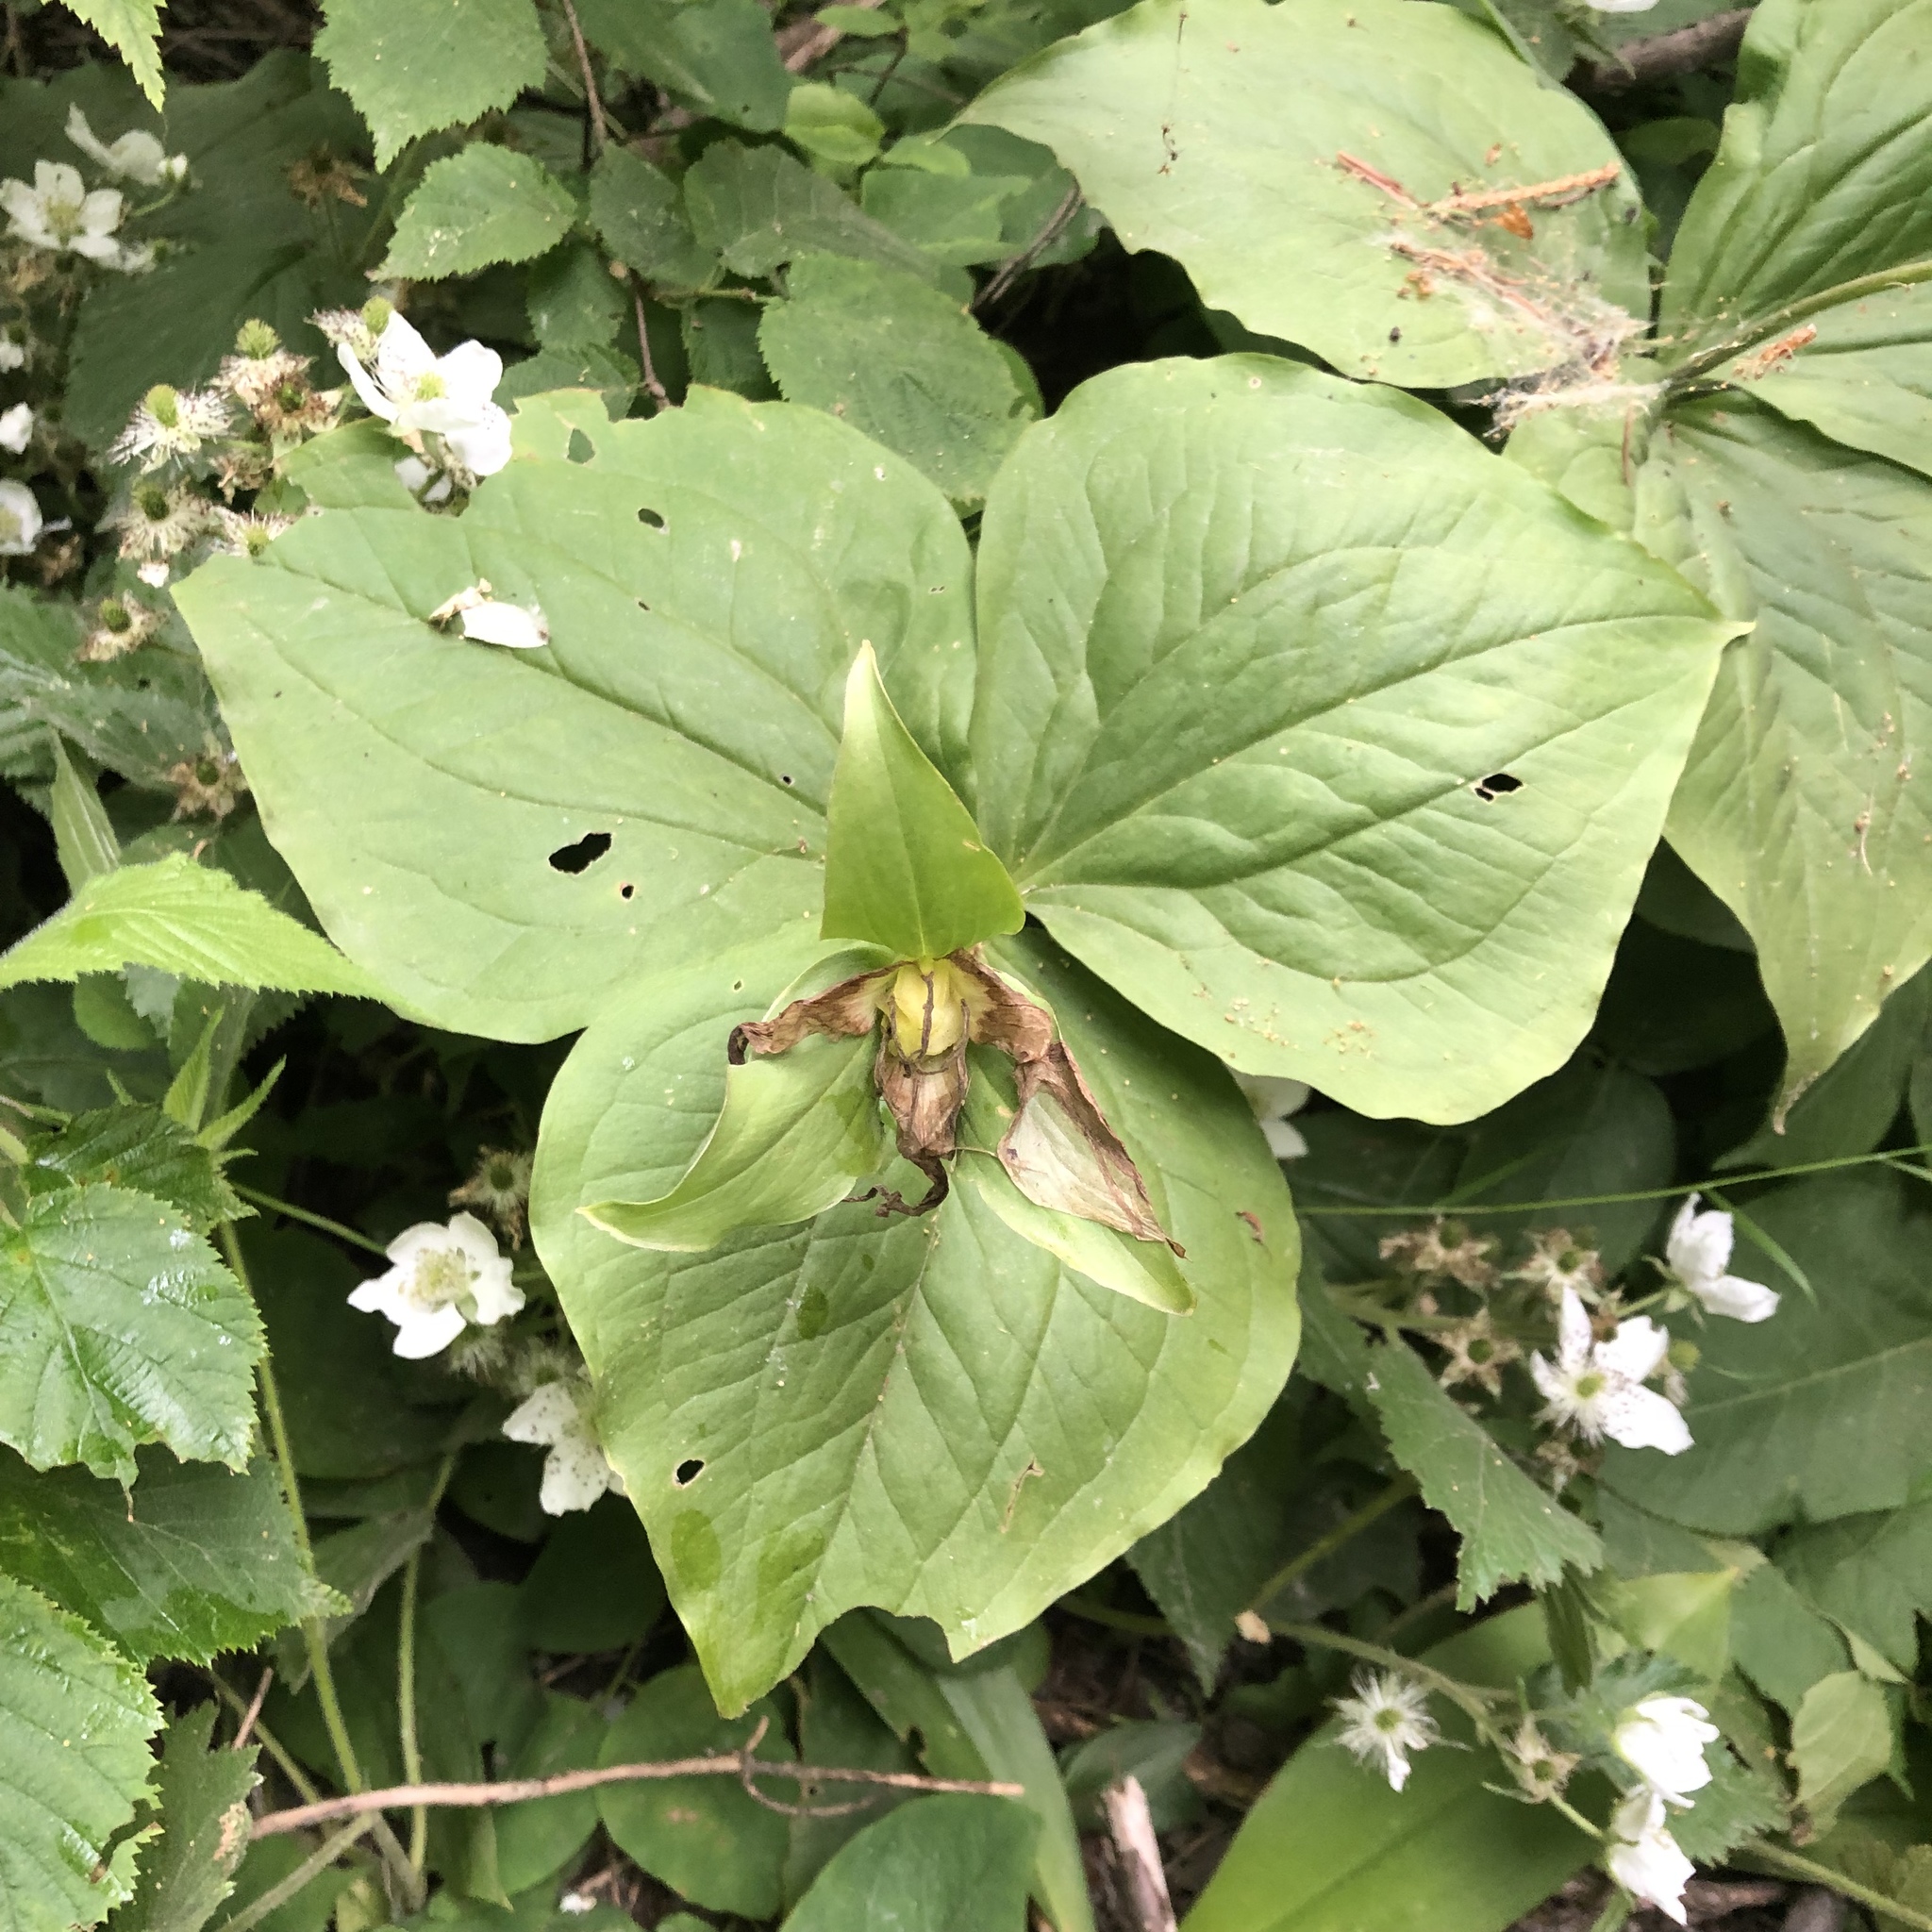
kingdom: Plantae
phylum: Tracheophyta
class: Liliopsida
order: Liliales
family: Melanthiaceae
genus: Trillium
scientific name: Trillium grandiflorum
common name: Great white trillium
